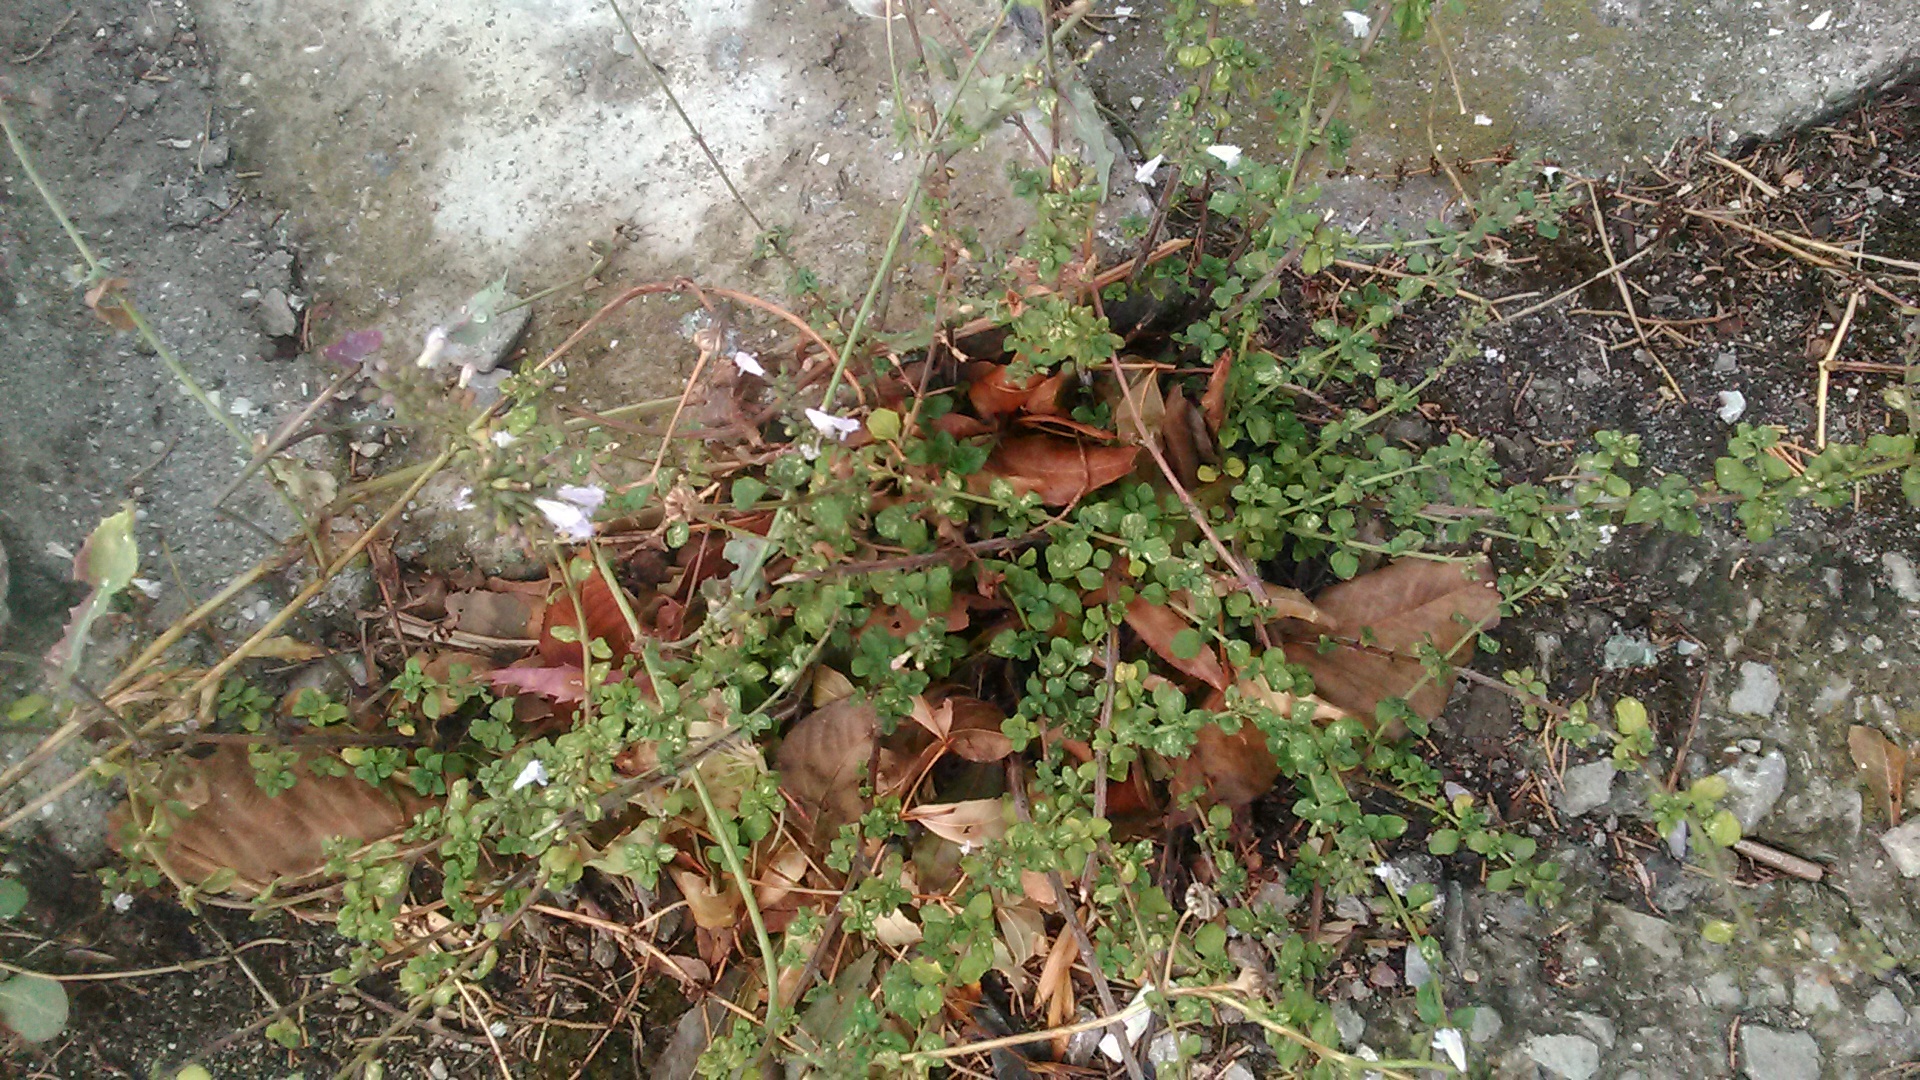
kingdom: Plantae
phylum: Tracheophyta
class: Magnoliopsida
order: Lamiales
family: Lamiaceae
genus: Clinopodium
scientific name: Clinopodium nepeta
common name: Lesser calamint
